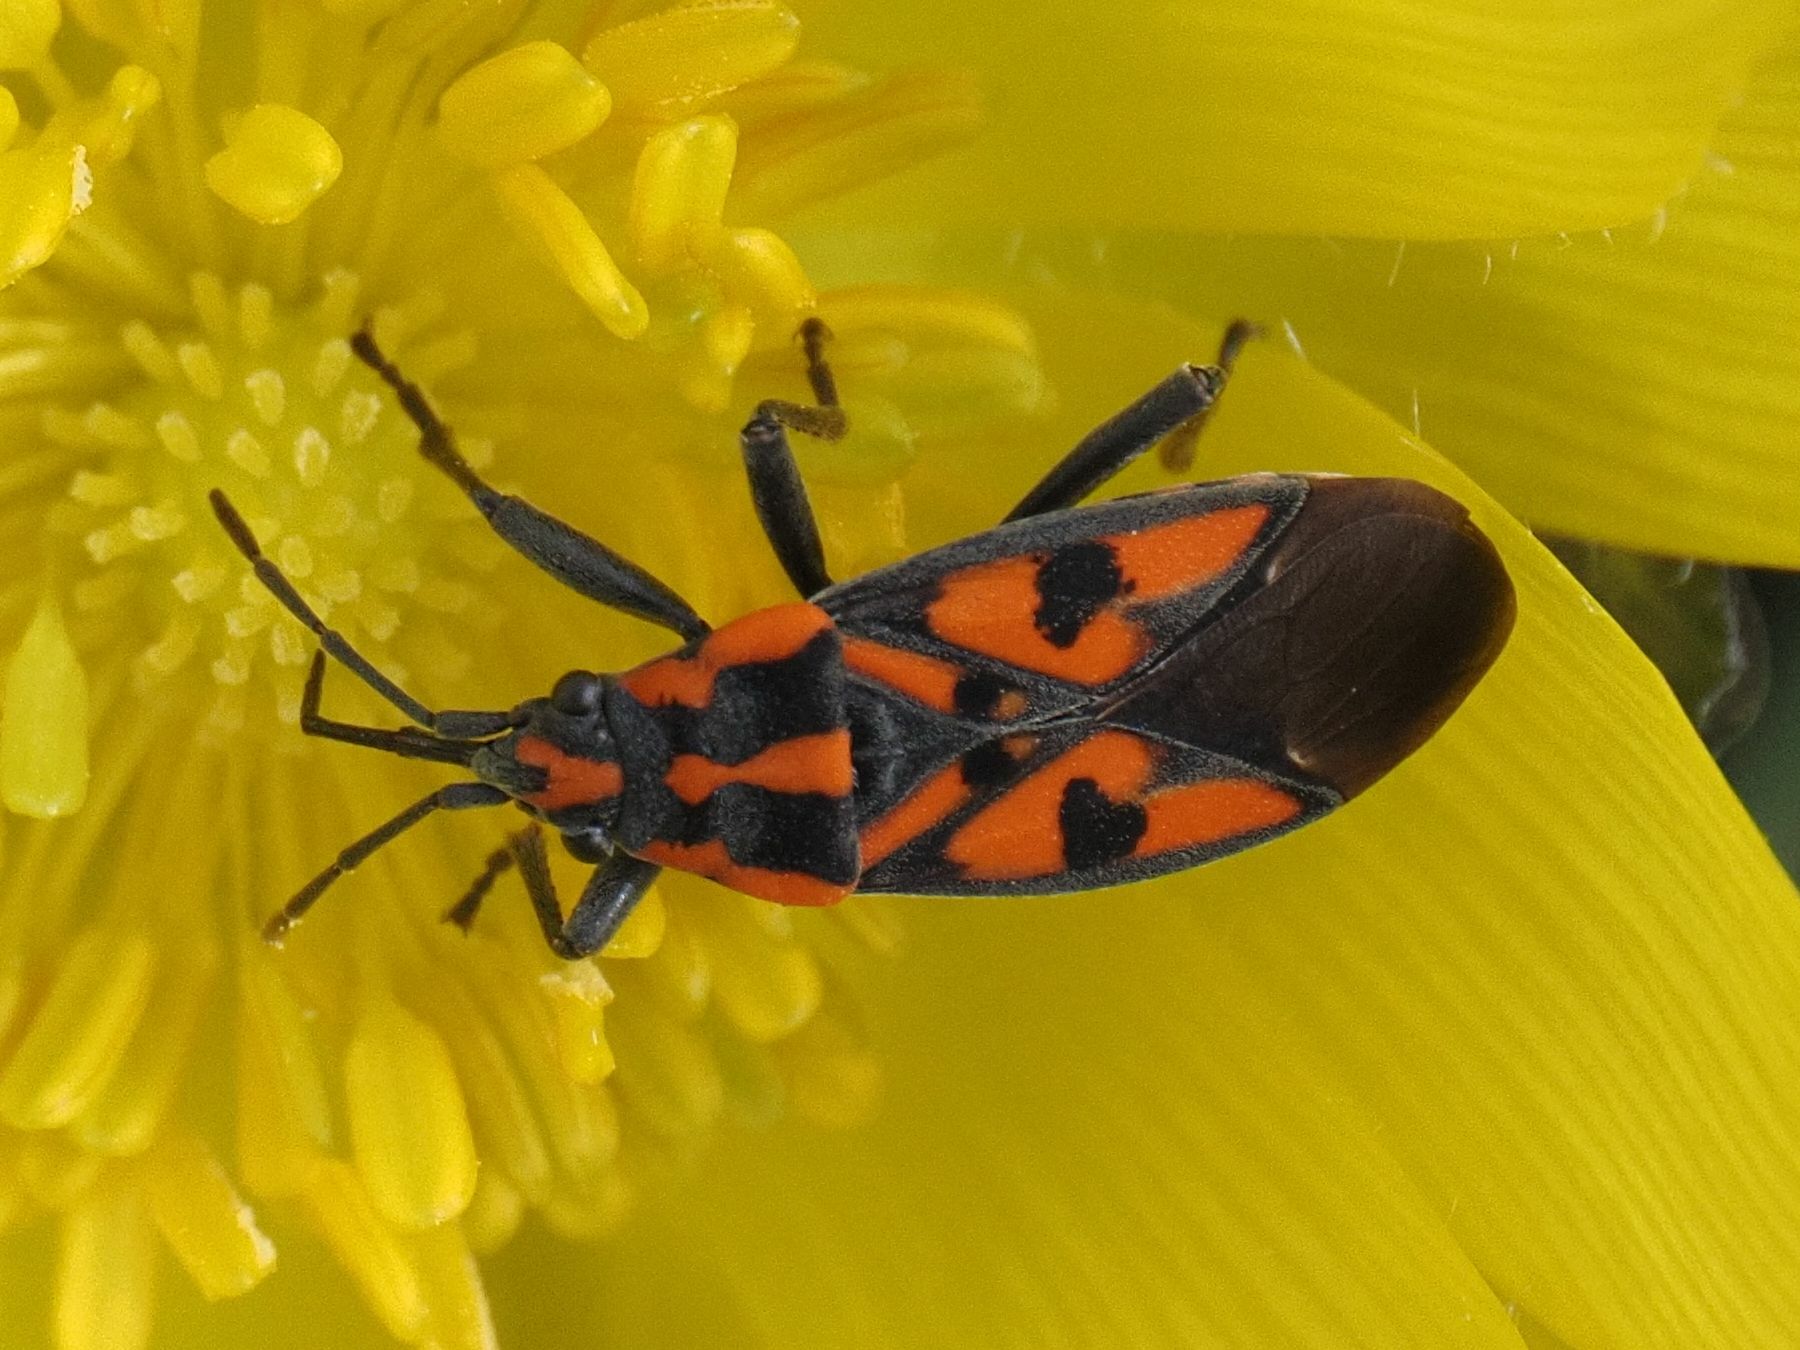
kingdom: Animalia
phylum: Arthropoda
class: Insecta
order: Hemiptera
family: Lygaeidae
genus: Spilostethus
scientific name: Spilostethus saxatilis
